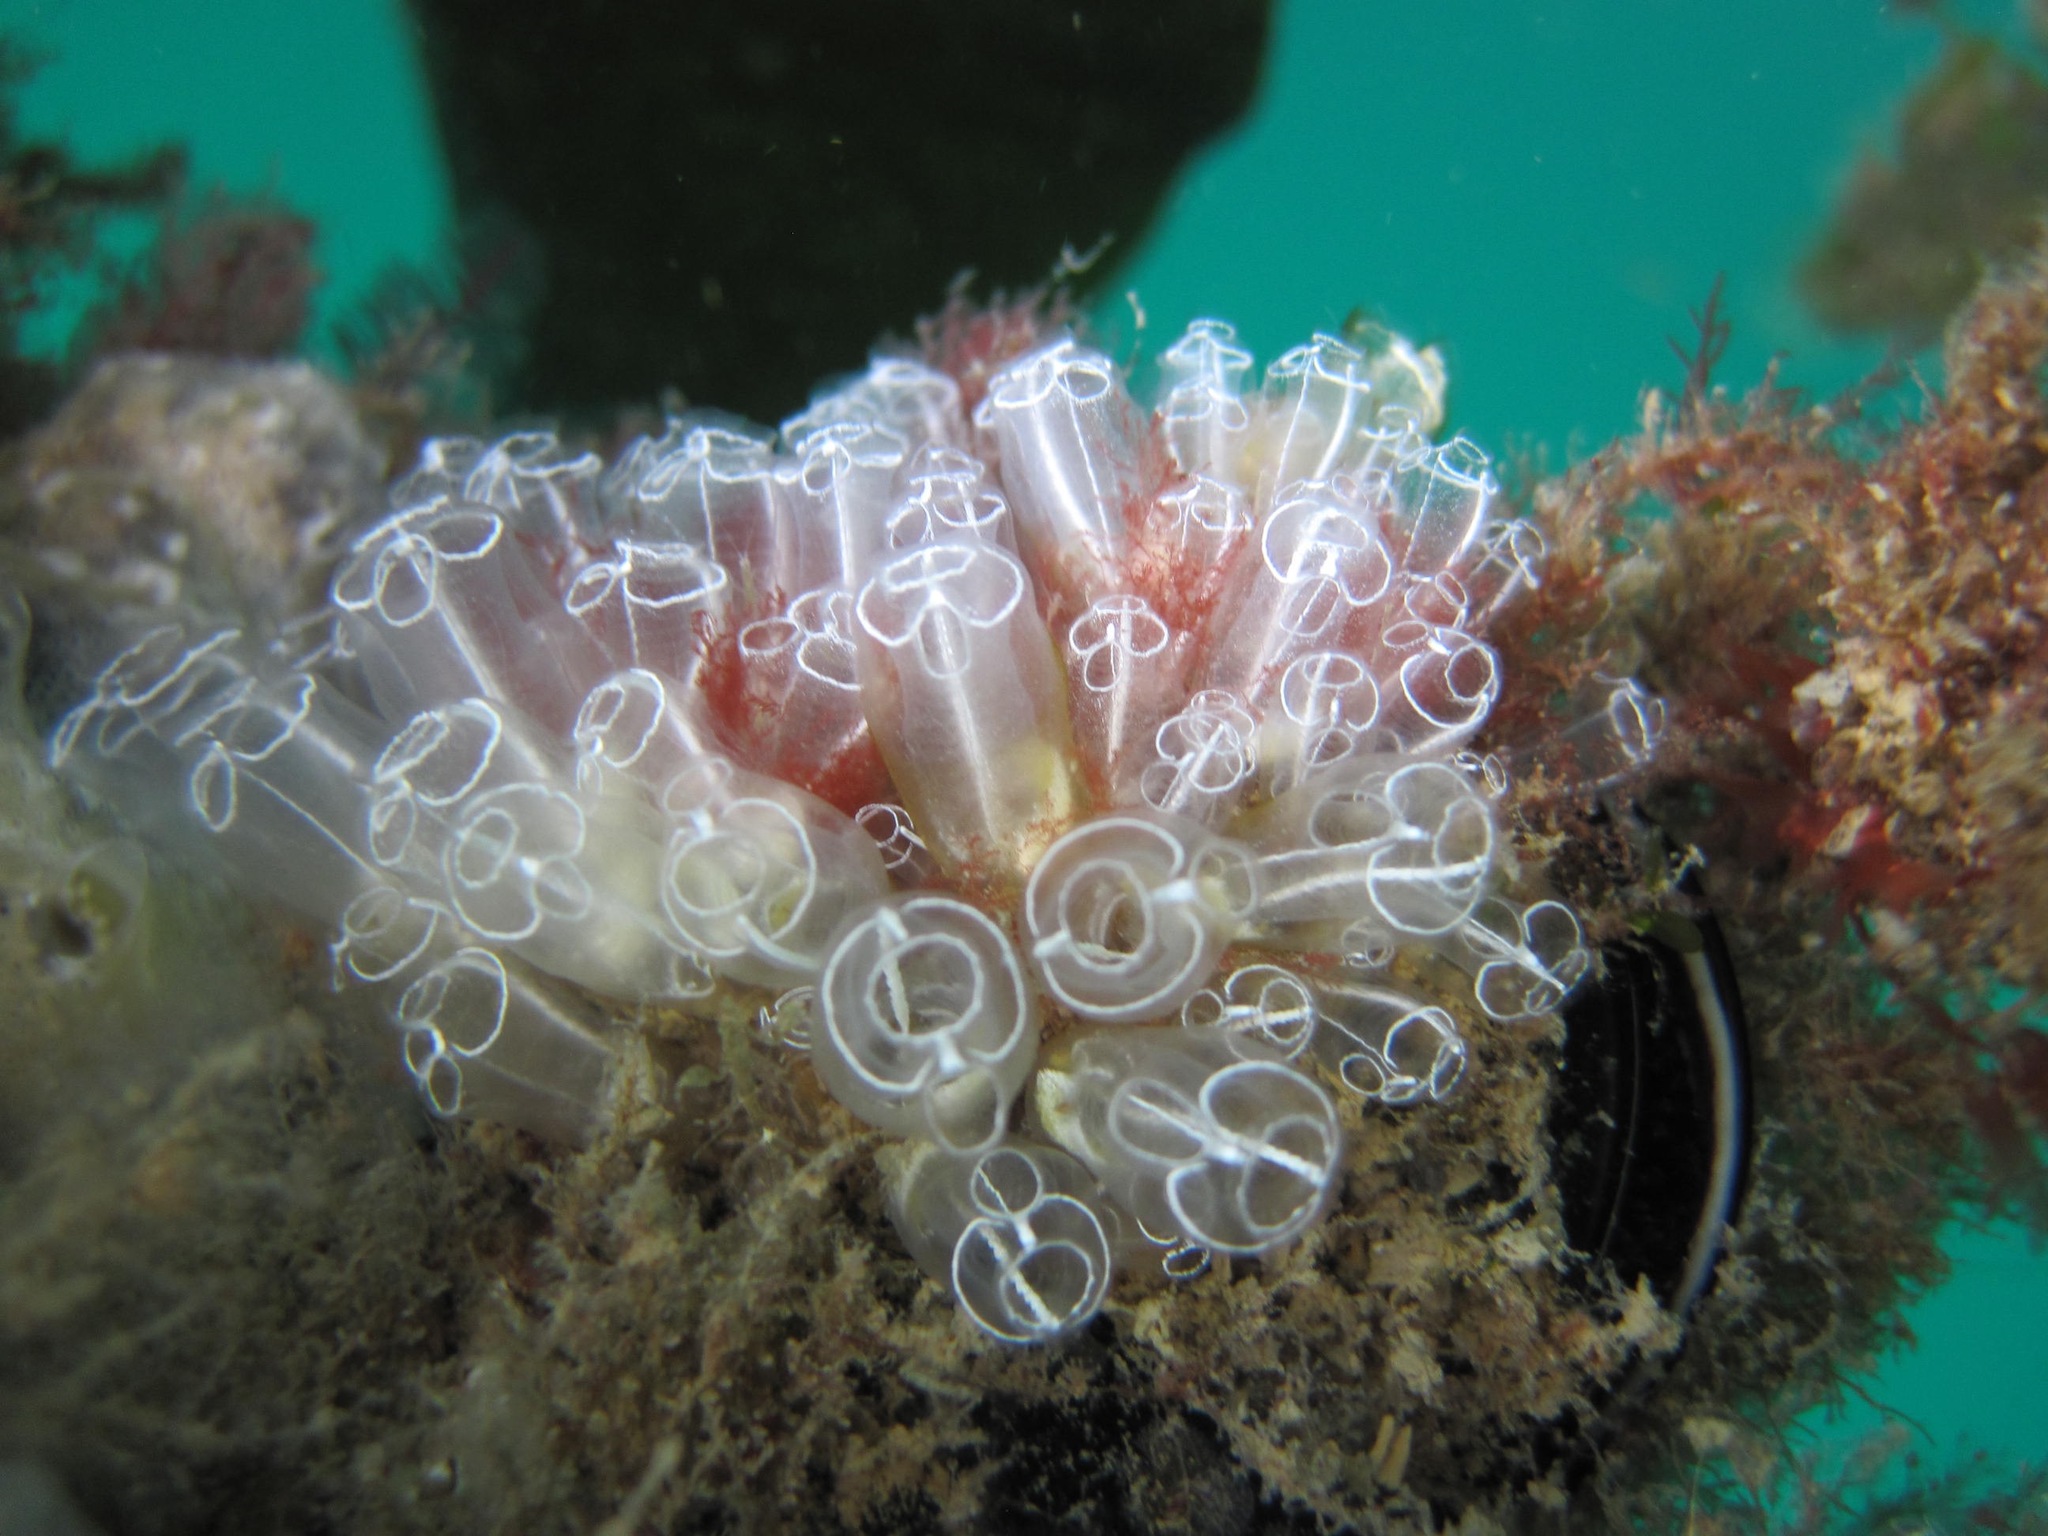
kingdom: Animalia
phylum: Chordata
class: Ascidiacea
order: Aplousobranchia
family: Clavelinidae
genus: Clavelina
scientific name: Clavelina lepadiformis
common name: Light bulb tunicate
